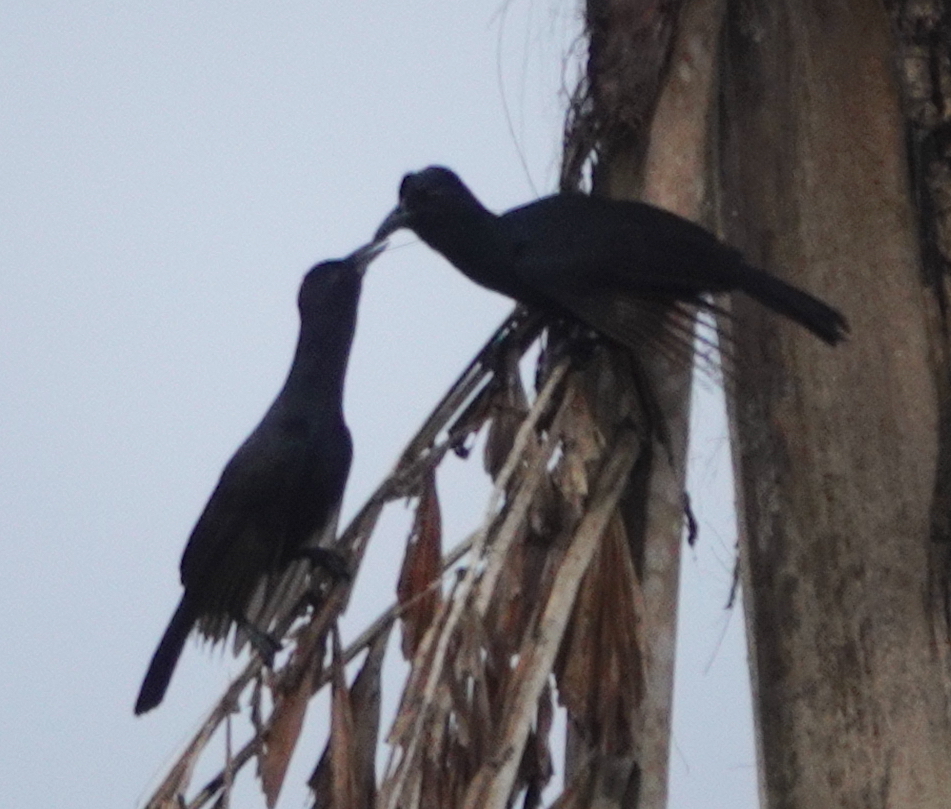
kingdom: Animalia
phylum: Chordata
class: Aves
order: Passeriformes
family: Paradisaeidae
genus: Lycocorax
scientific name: Lycocorax obiensis
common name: Obi paradise-crow
